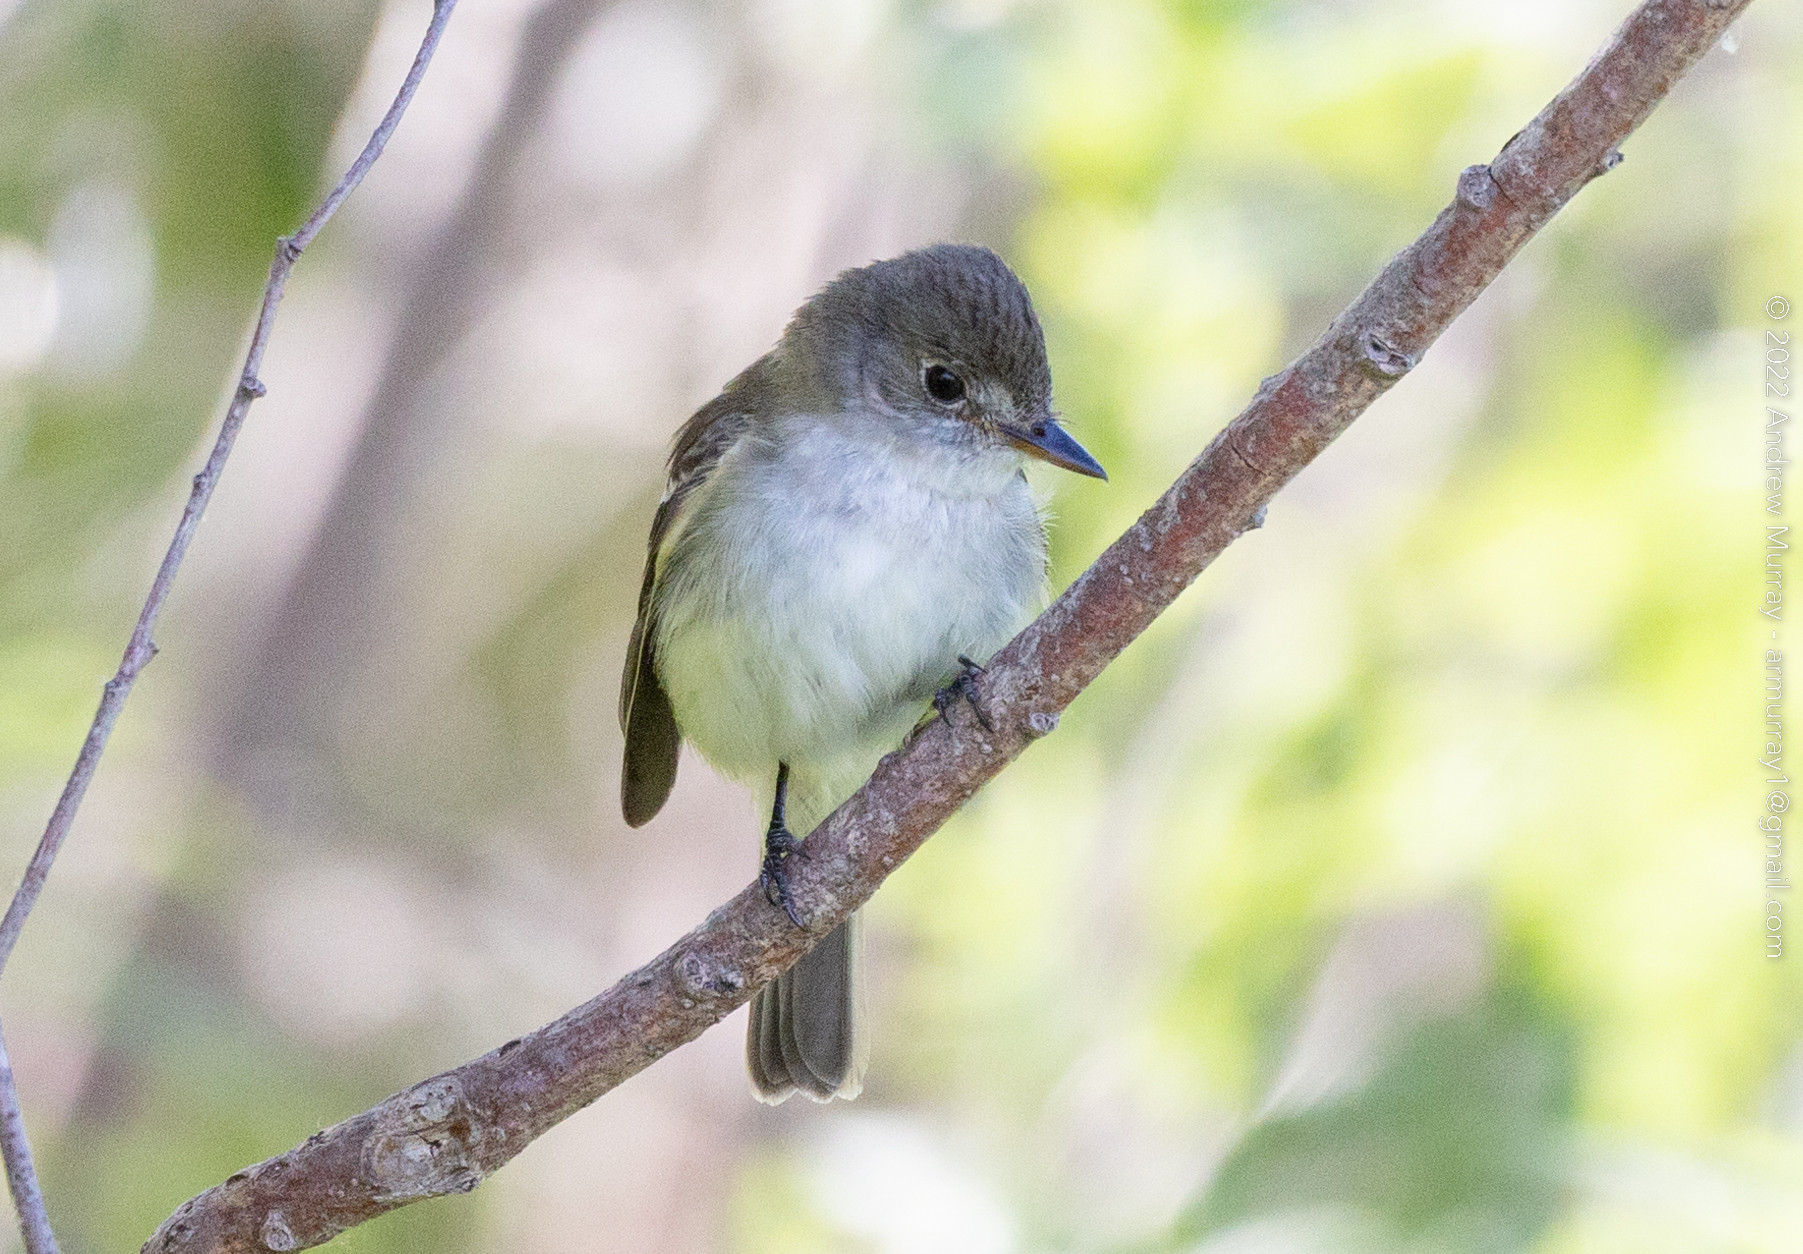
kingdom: Animalia
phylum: Chordata
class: Aves
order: Passeriformes
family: Tyrannidae
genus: Empidonax
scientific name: Empidonax traillii
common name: Willow flycatcher
